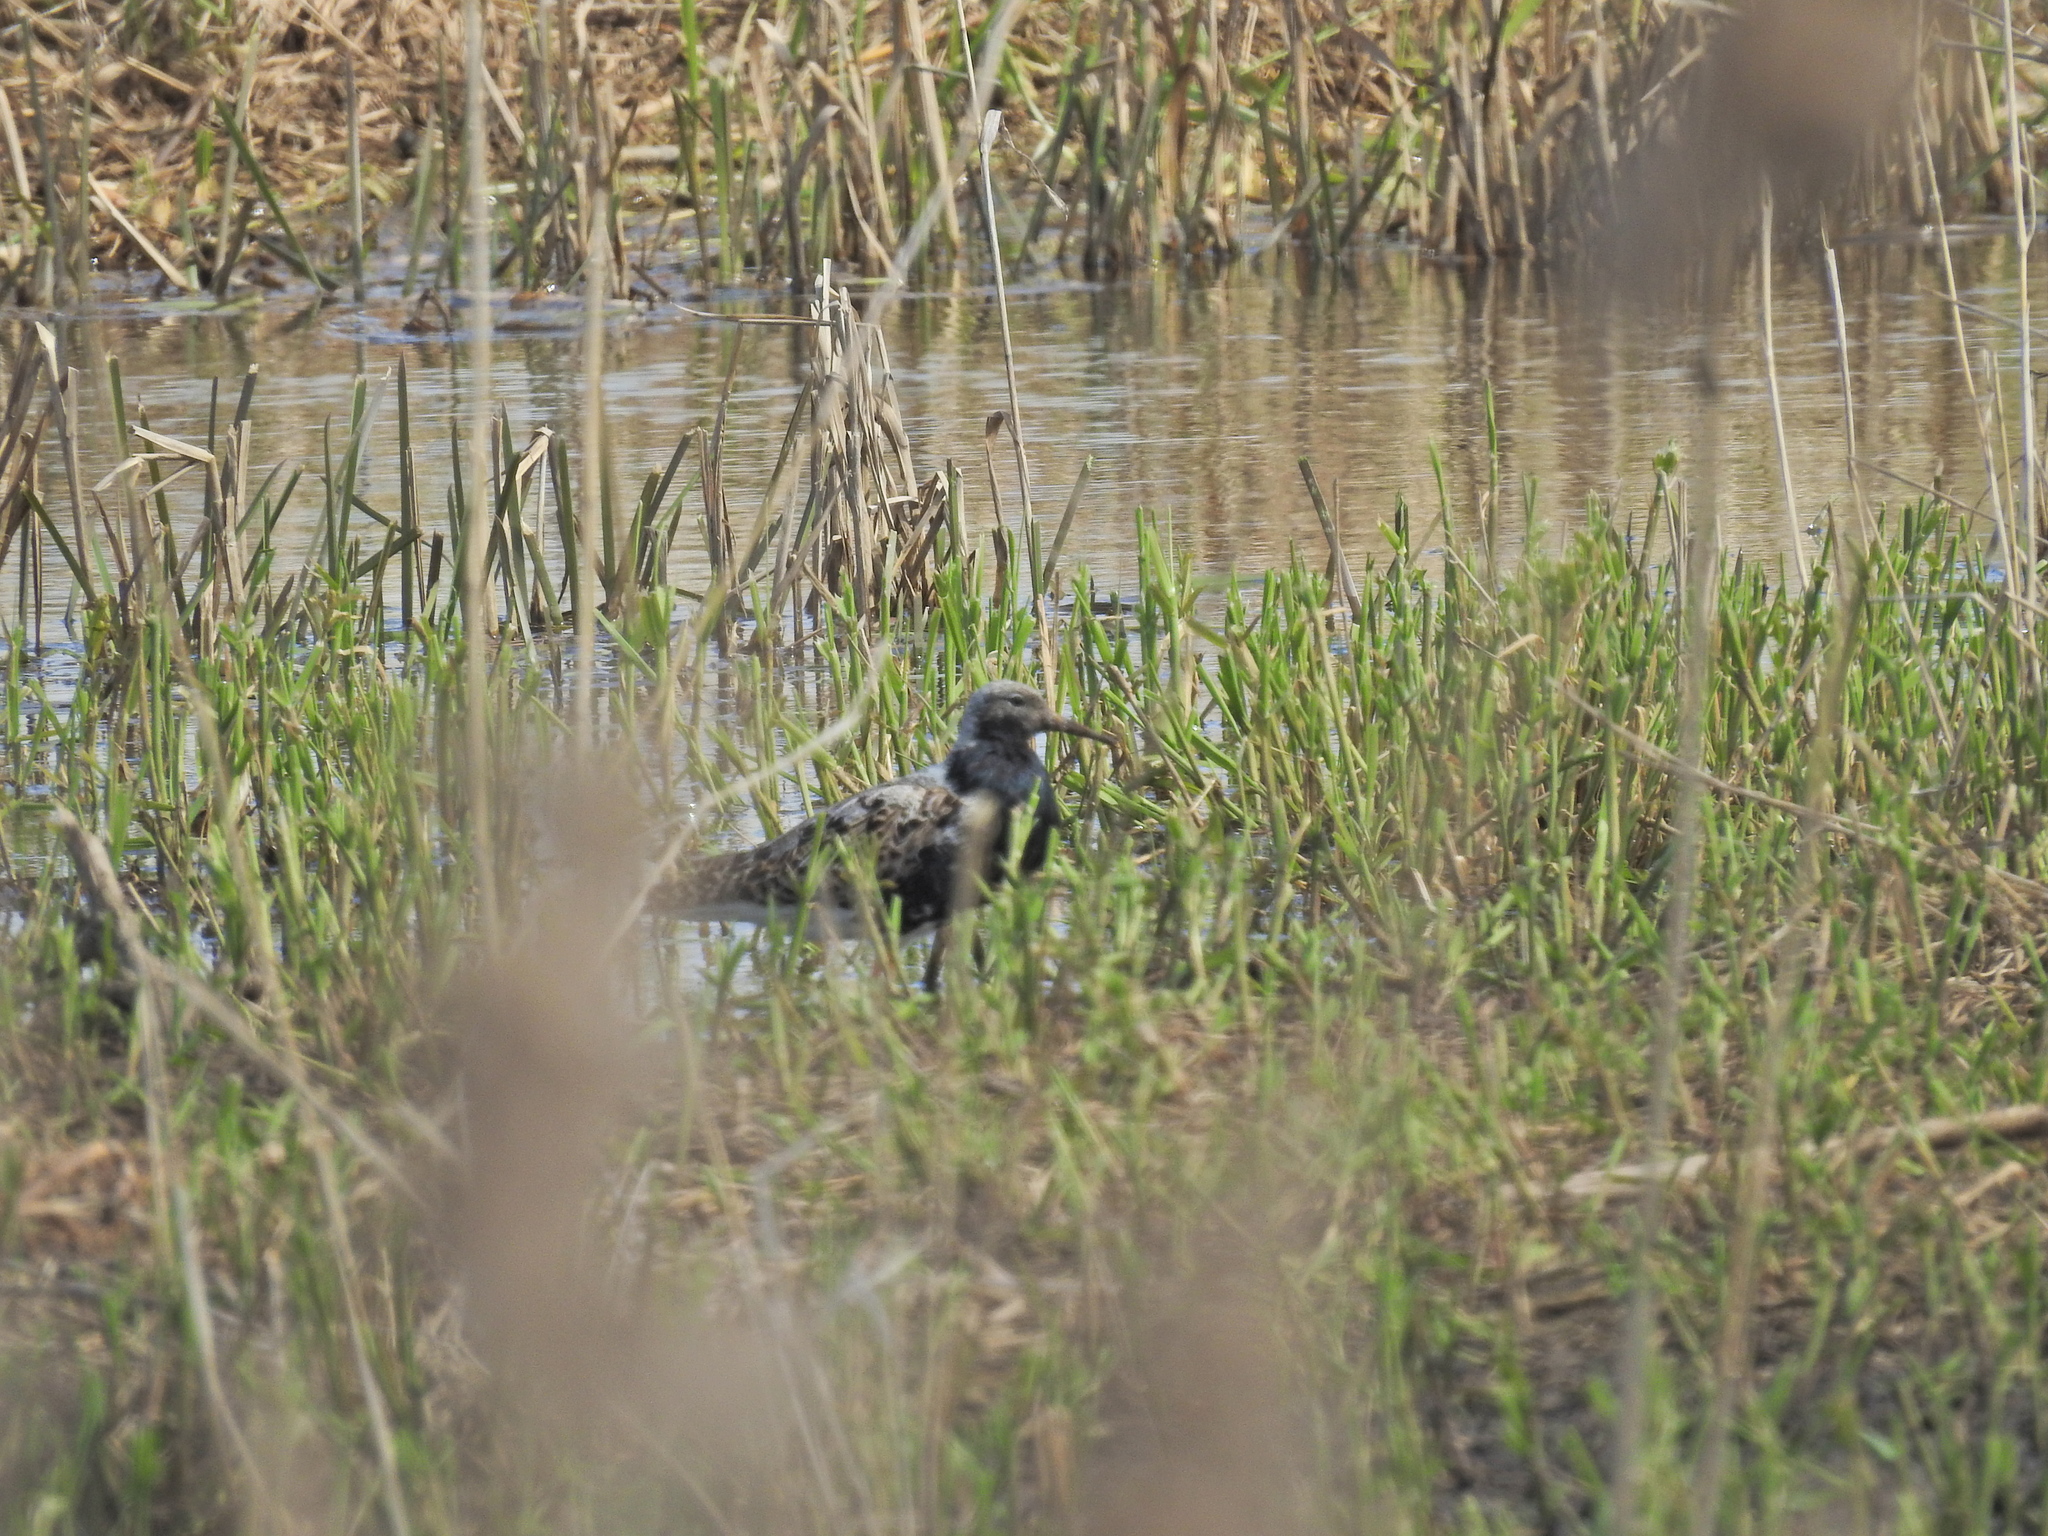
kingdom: Animalia
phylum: Chordata
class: Aves
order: Charadriiformes
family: Scolopacidae
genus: Calidris
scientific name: Calidris pugnax
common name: Ruff
